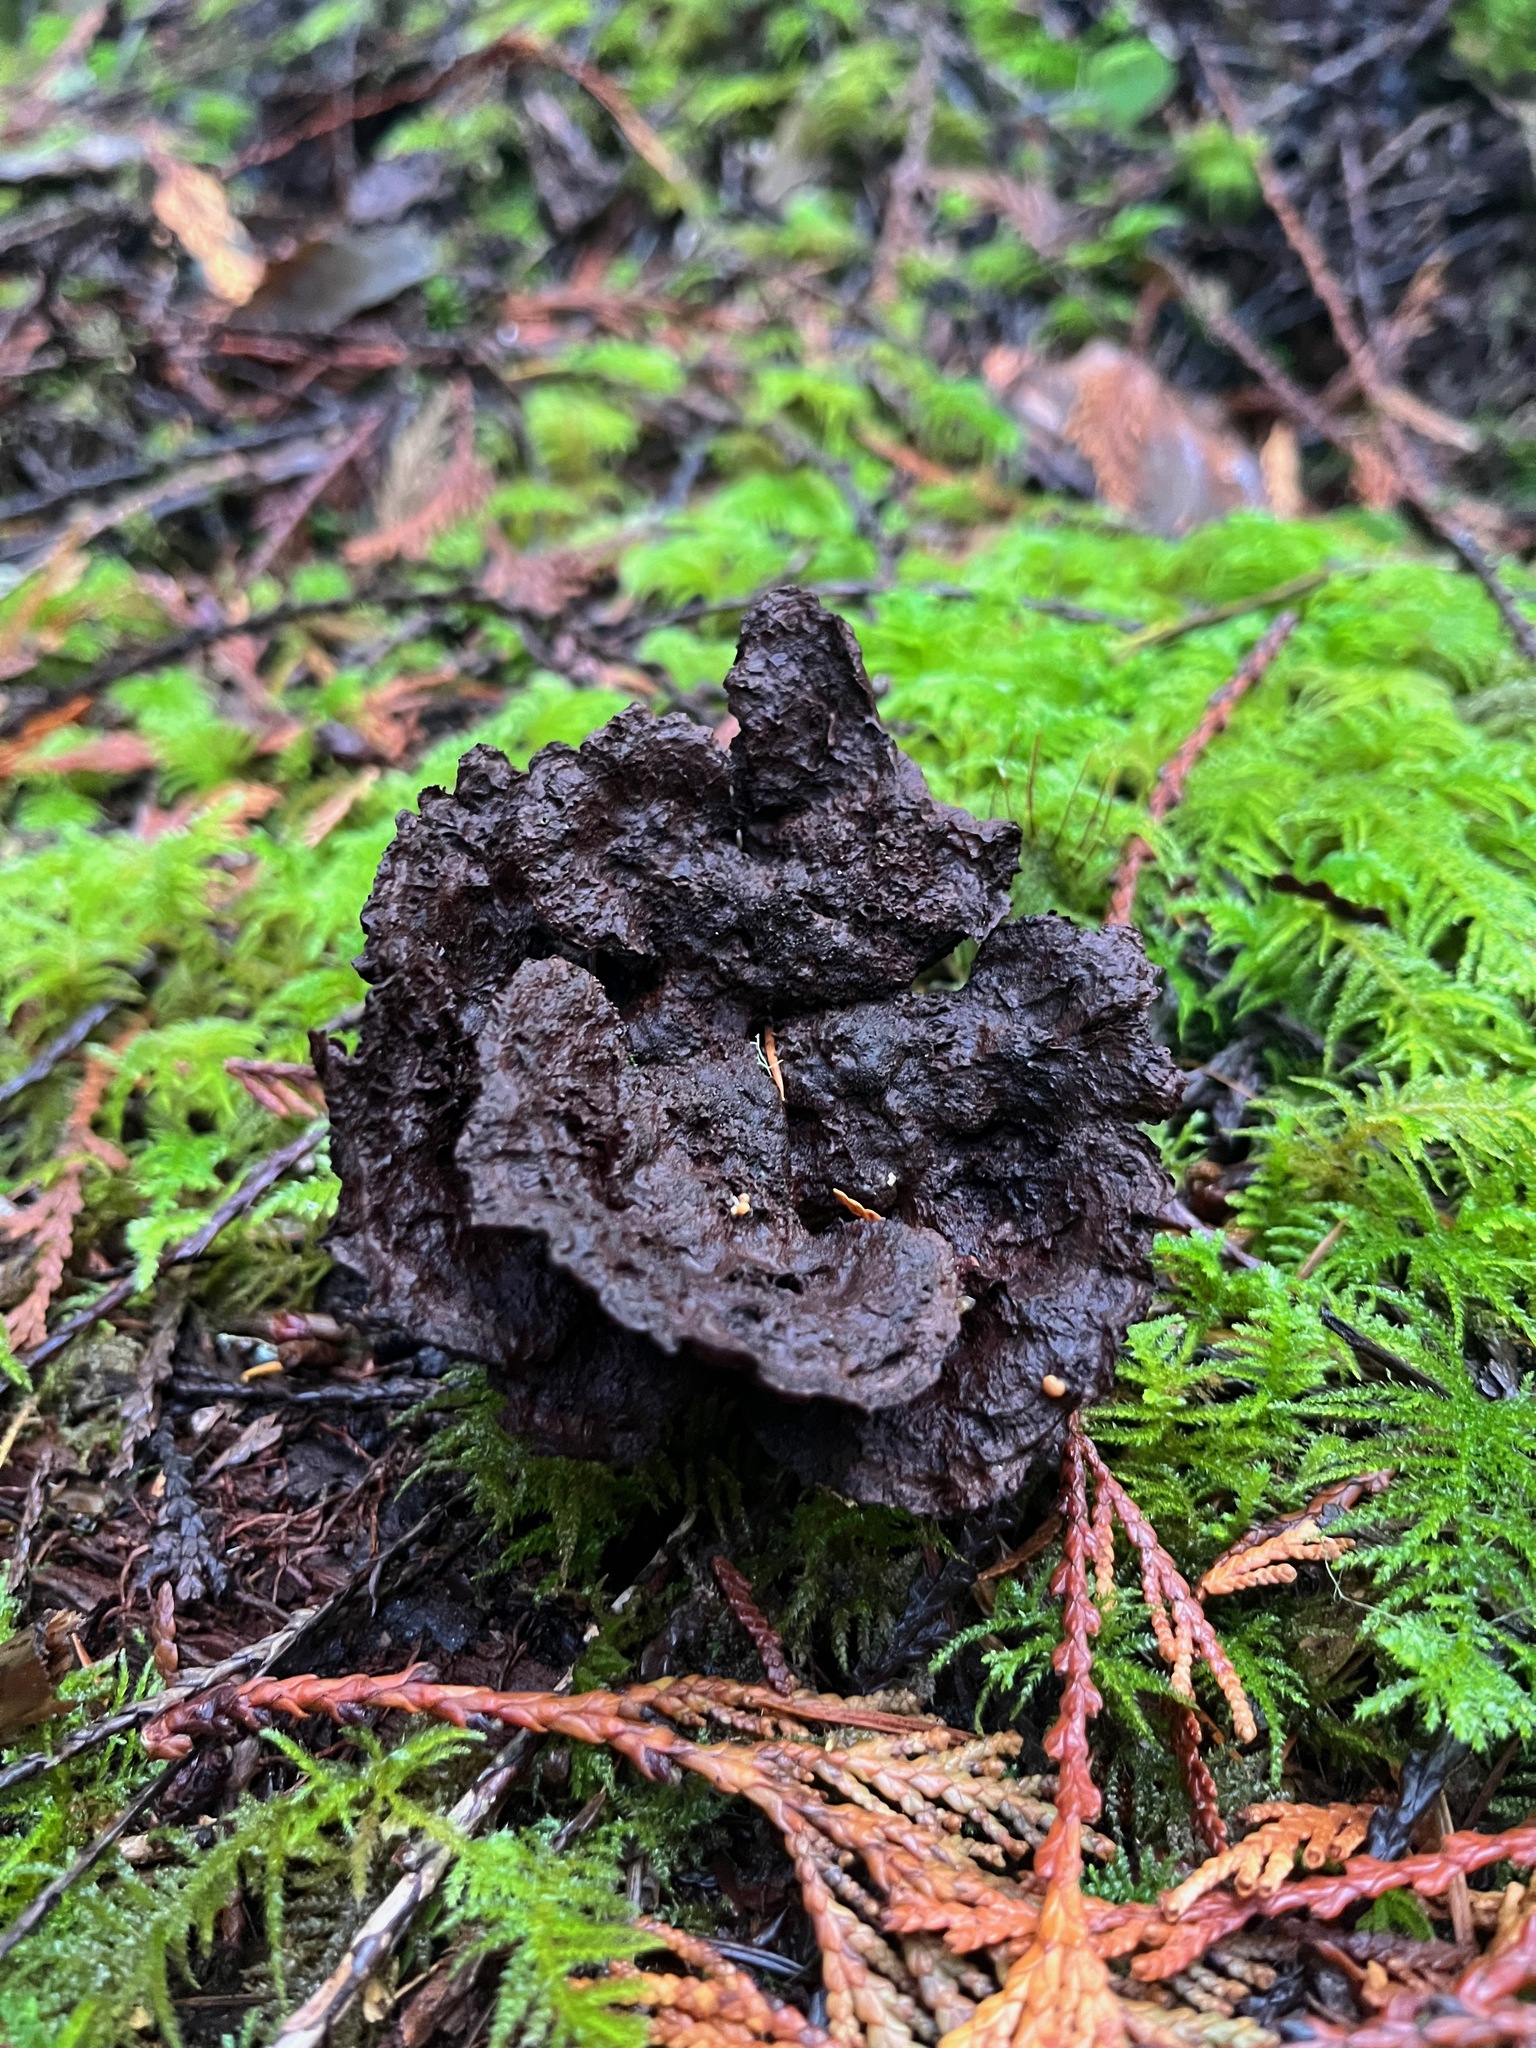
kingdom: Fungi
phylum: Basidiomycota
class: Agaricomycetes
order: Polyporales
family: Laetiporaceae
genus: Phaeolus
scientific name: Phaeolus schweinitzii
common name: Dyer's mazegill
